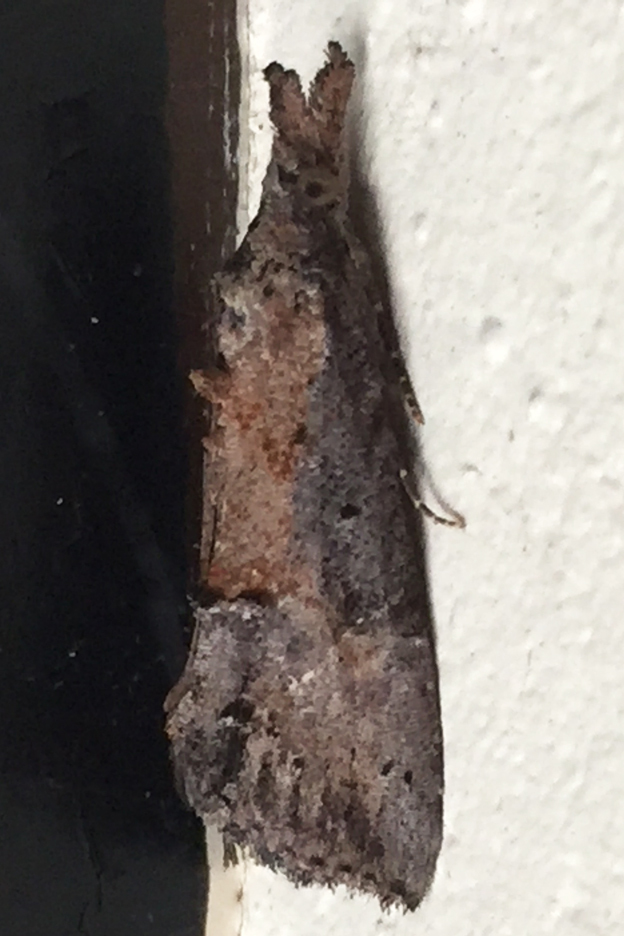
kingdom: Animalia
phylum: Arthropoda
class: Insecta
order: Lepidoptera
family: Erebidae
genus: Hypena
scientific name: Hypena scabra
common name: Green cloverworm
